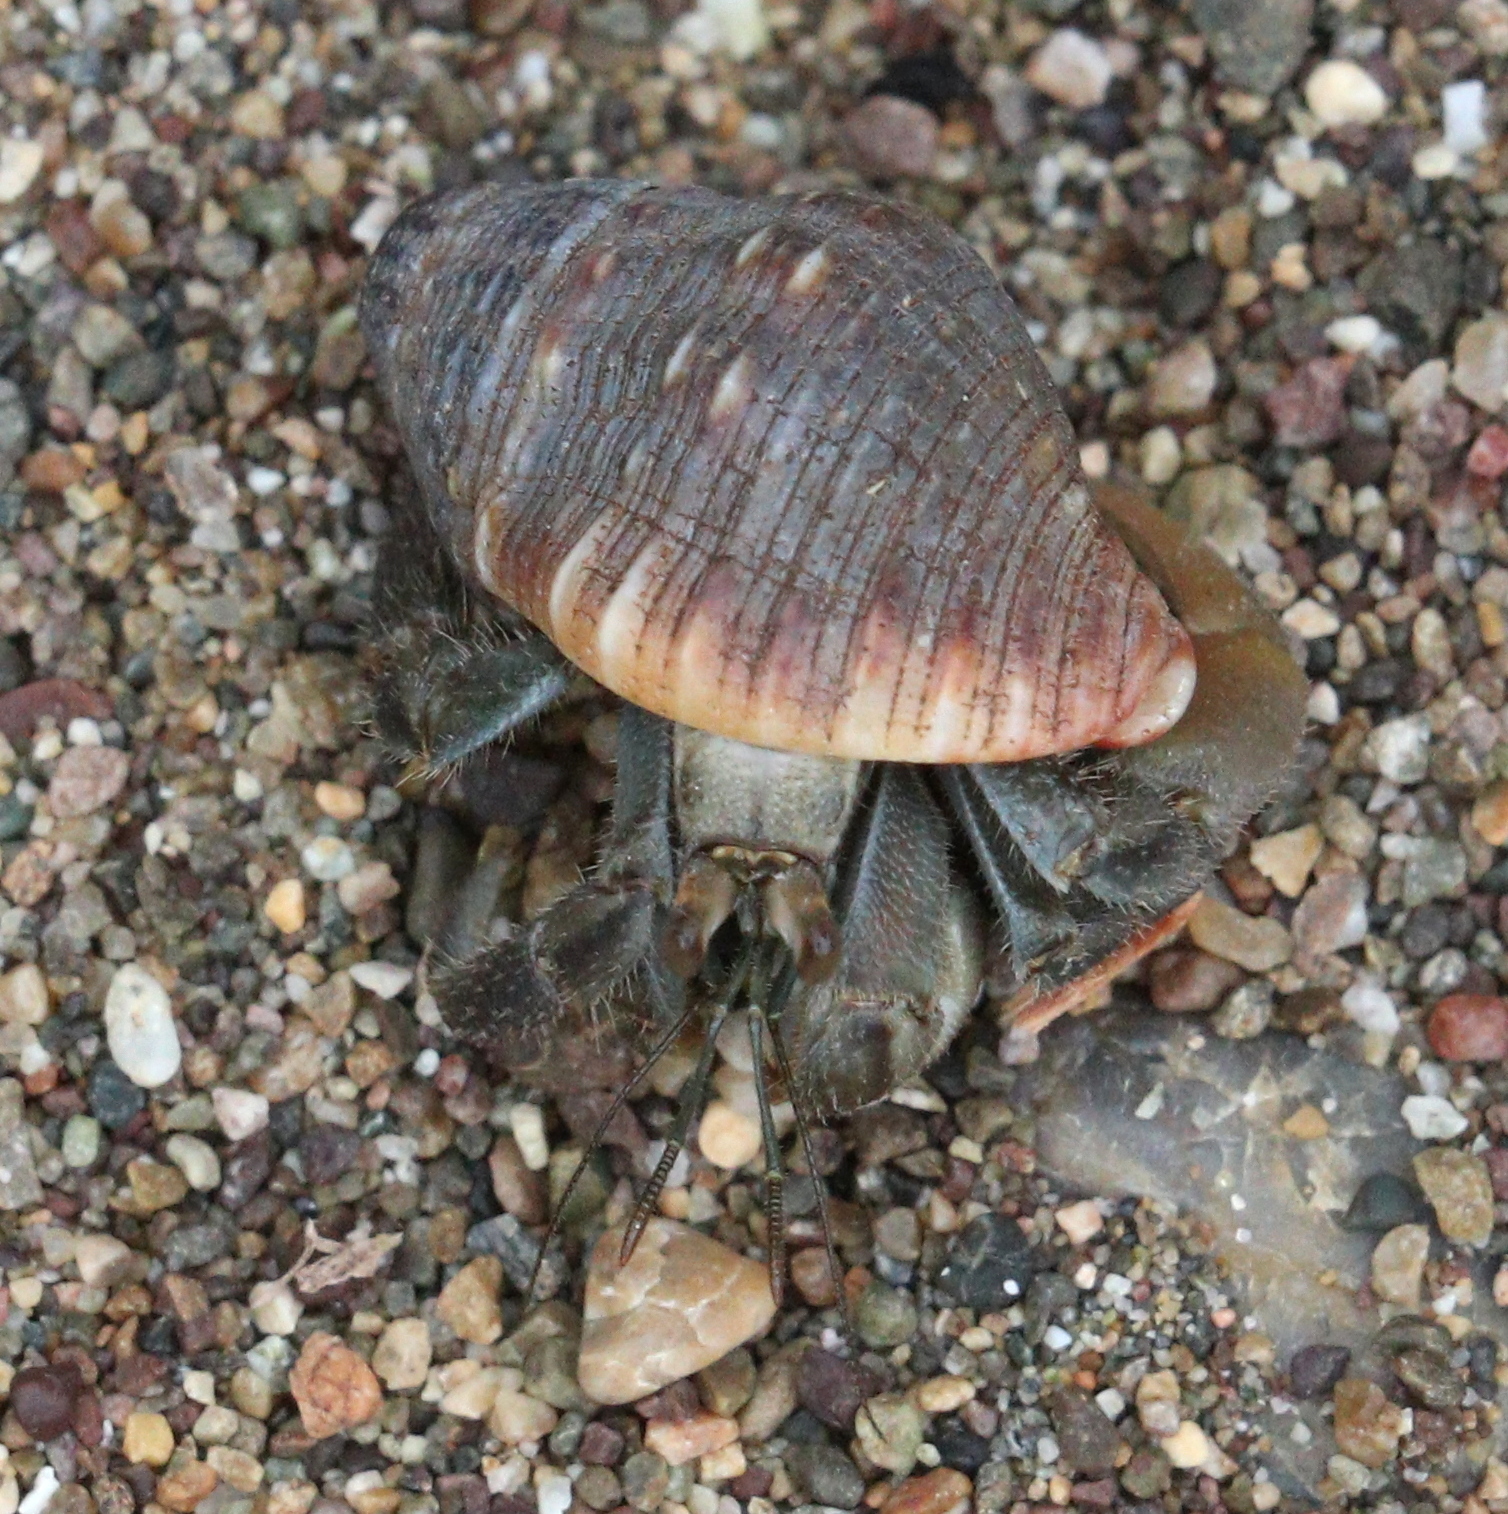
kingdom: Animalia
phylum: Arthropoda
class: Malacostraca
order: Decapoda
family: Coenobitidae
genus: Coenobita
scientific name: Coenobita compressus
